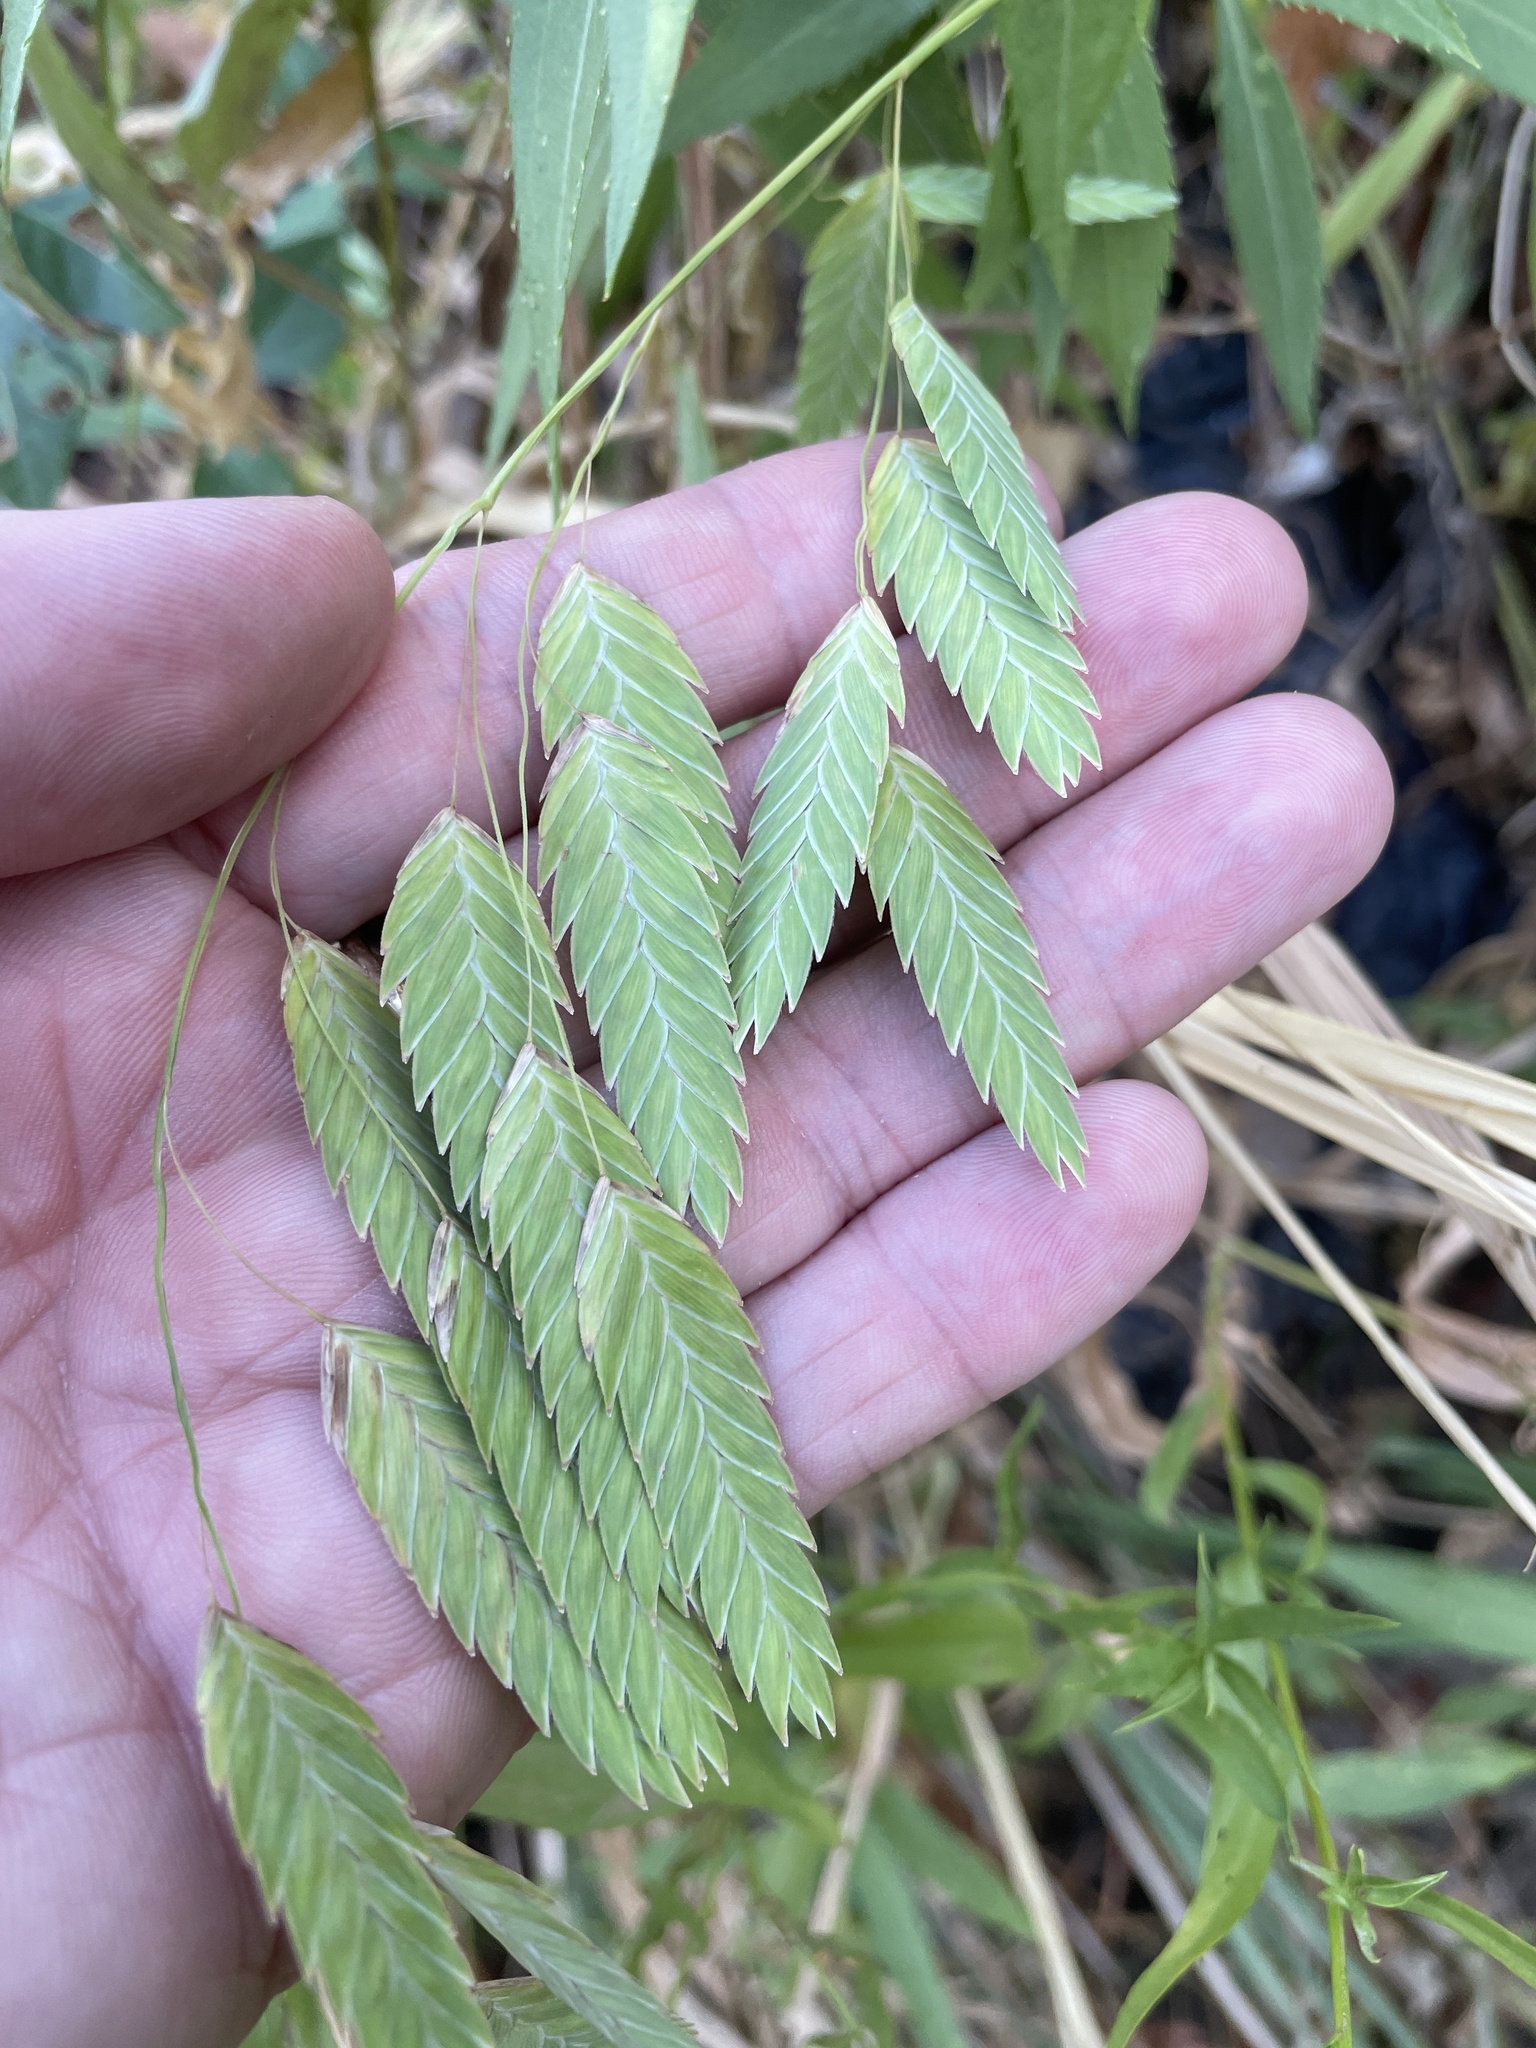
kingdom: Plantae
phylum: Tracheophyta
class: Liliopsida
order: Poales
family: Poaceae
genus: Chasmanthium
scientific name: Chasmanthium latifolium
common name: Broad-leaved chasmanthium
